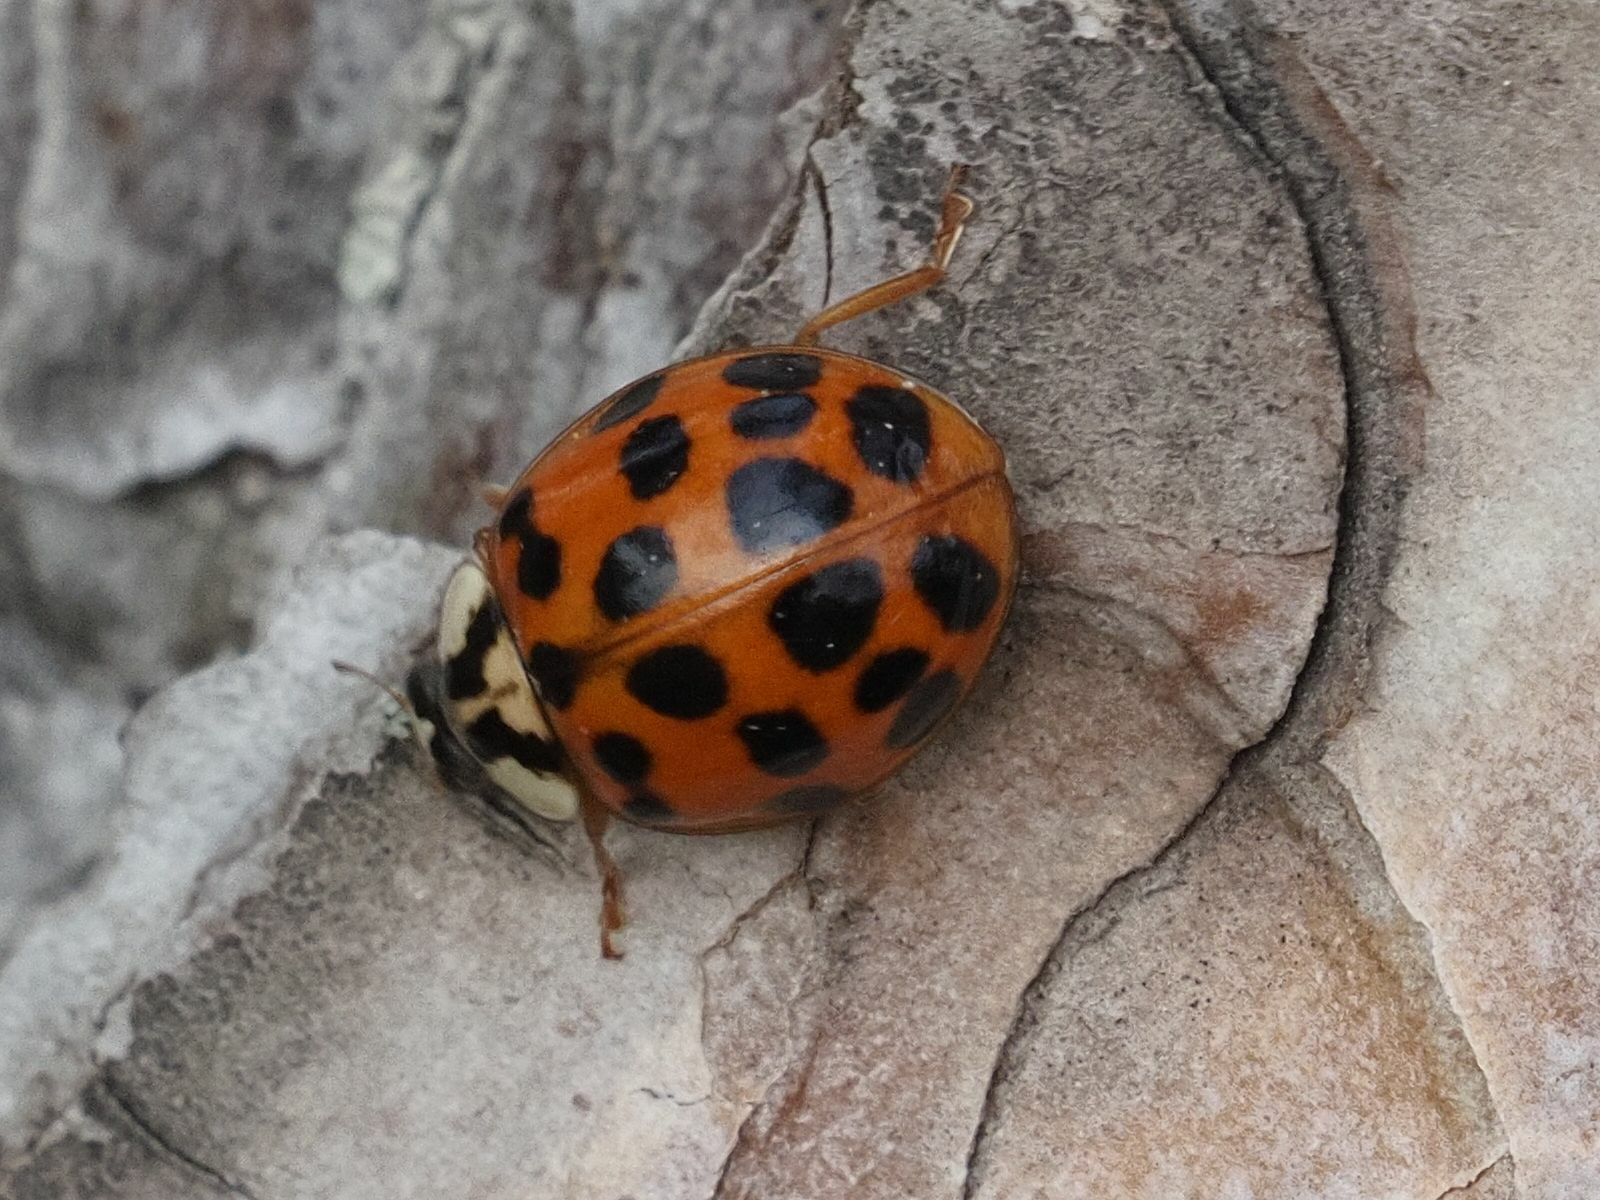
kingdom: Animalia
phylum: Arthropoda
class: Insecta
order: Coleoptera
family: Coccinellidae
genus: Harmonia
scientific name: Harmonia axyridis
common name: Harlequin ladybird
